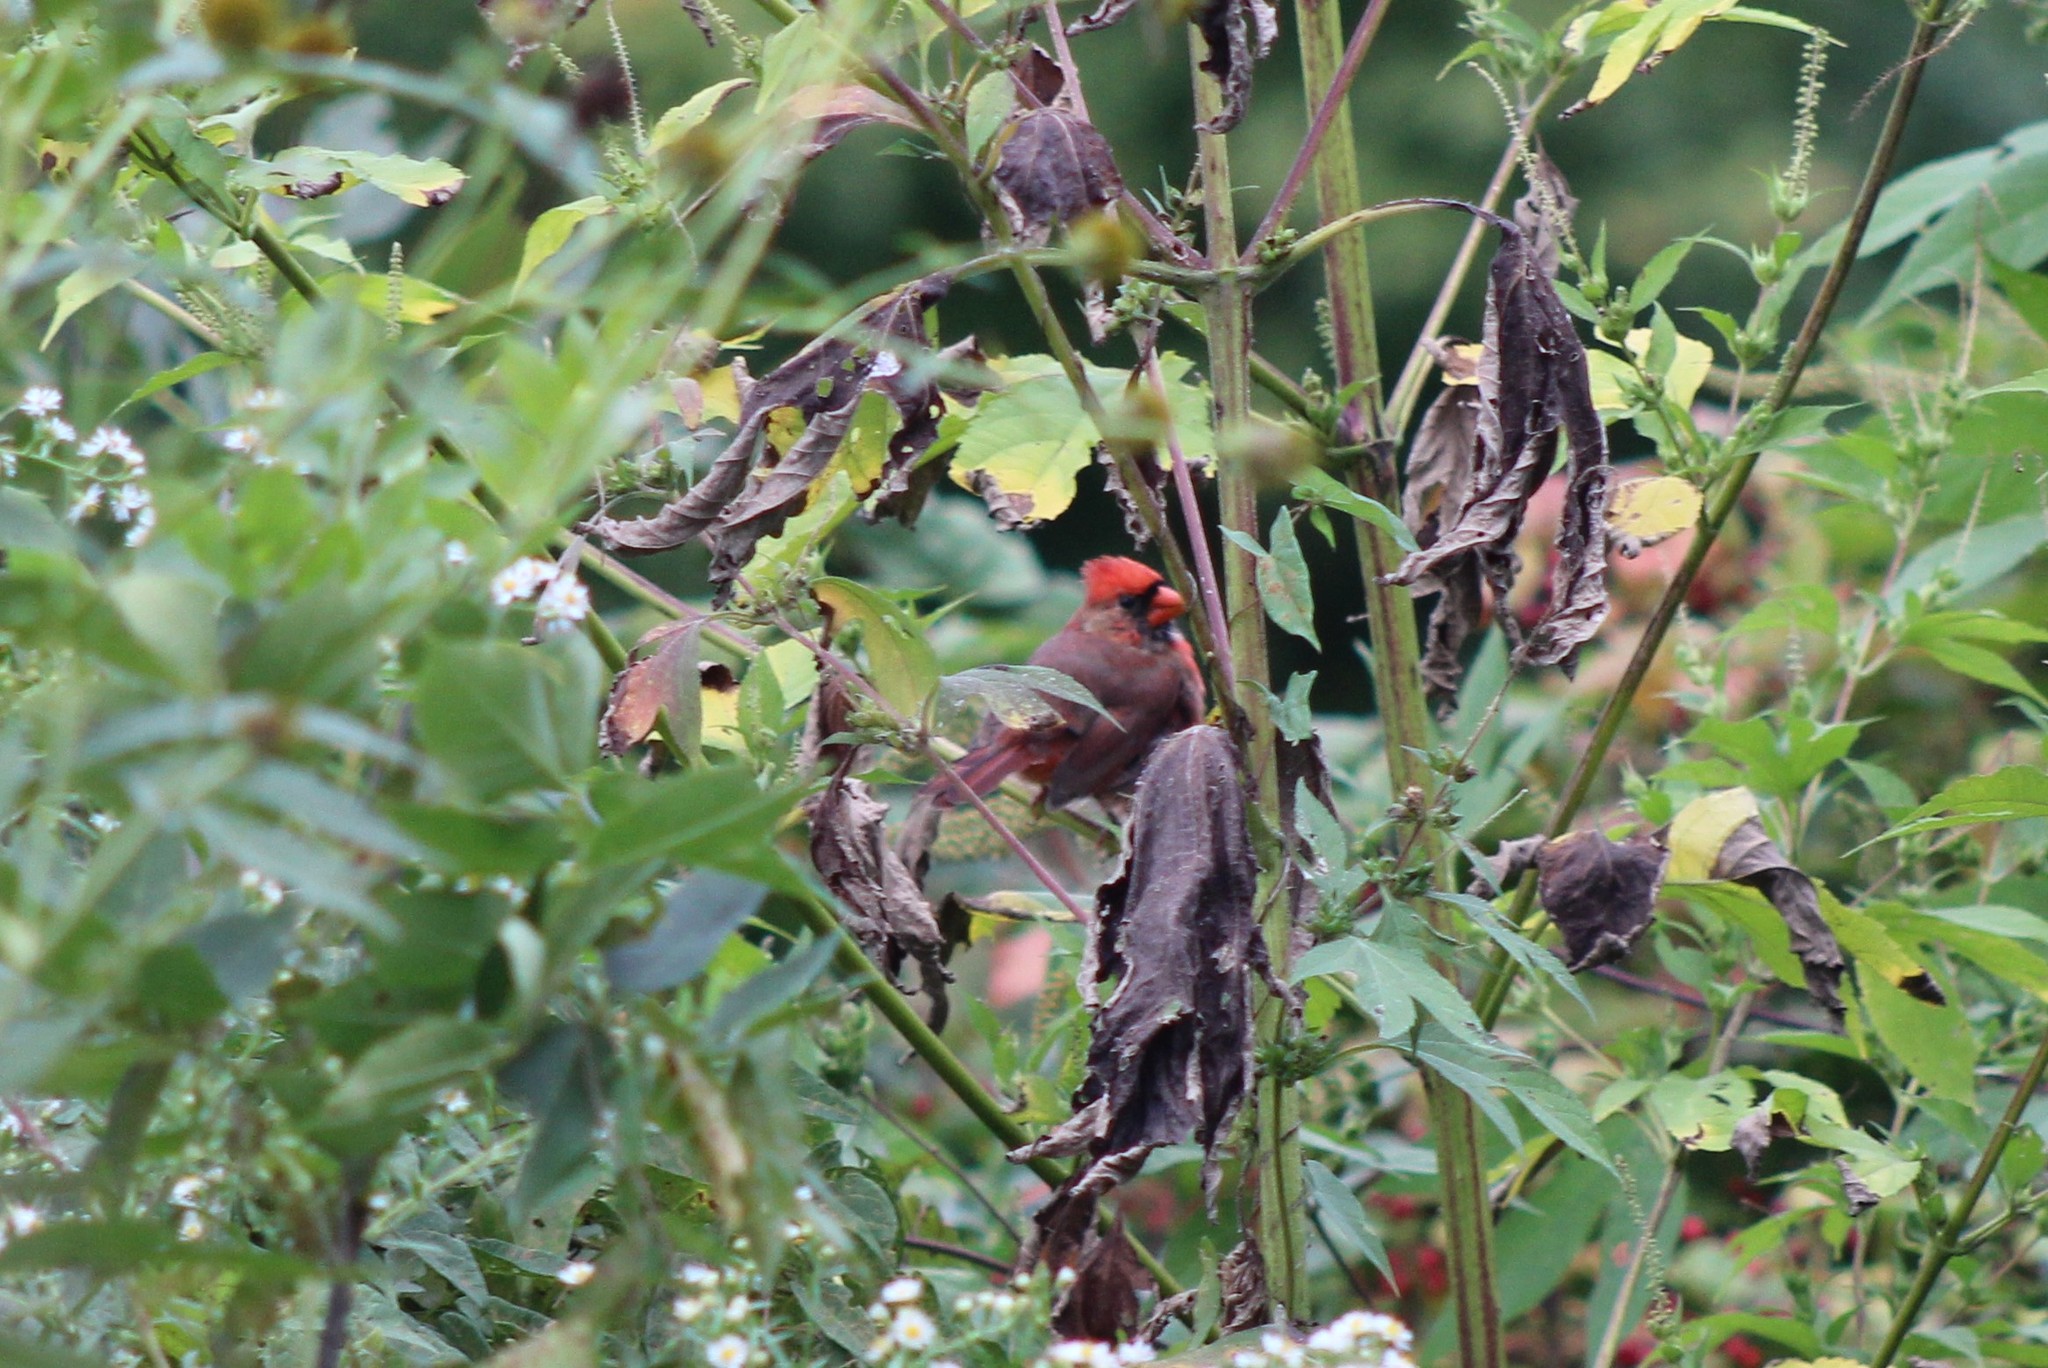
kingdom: Animalia
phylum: Chordata
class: Aves
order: Passeriformes
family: Cardinalidae
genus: Cardinalis
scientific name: Cardinalis cardinalis
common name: Northern cardinal
